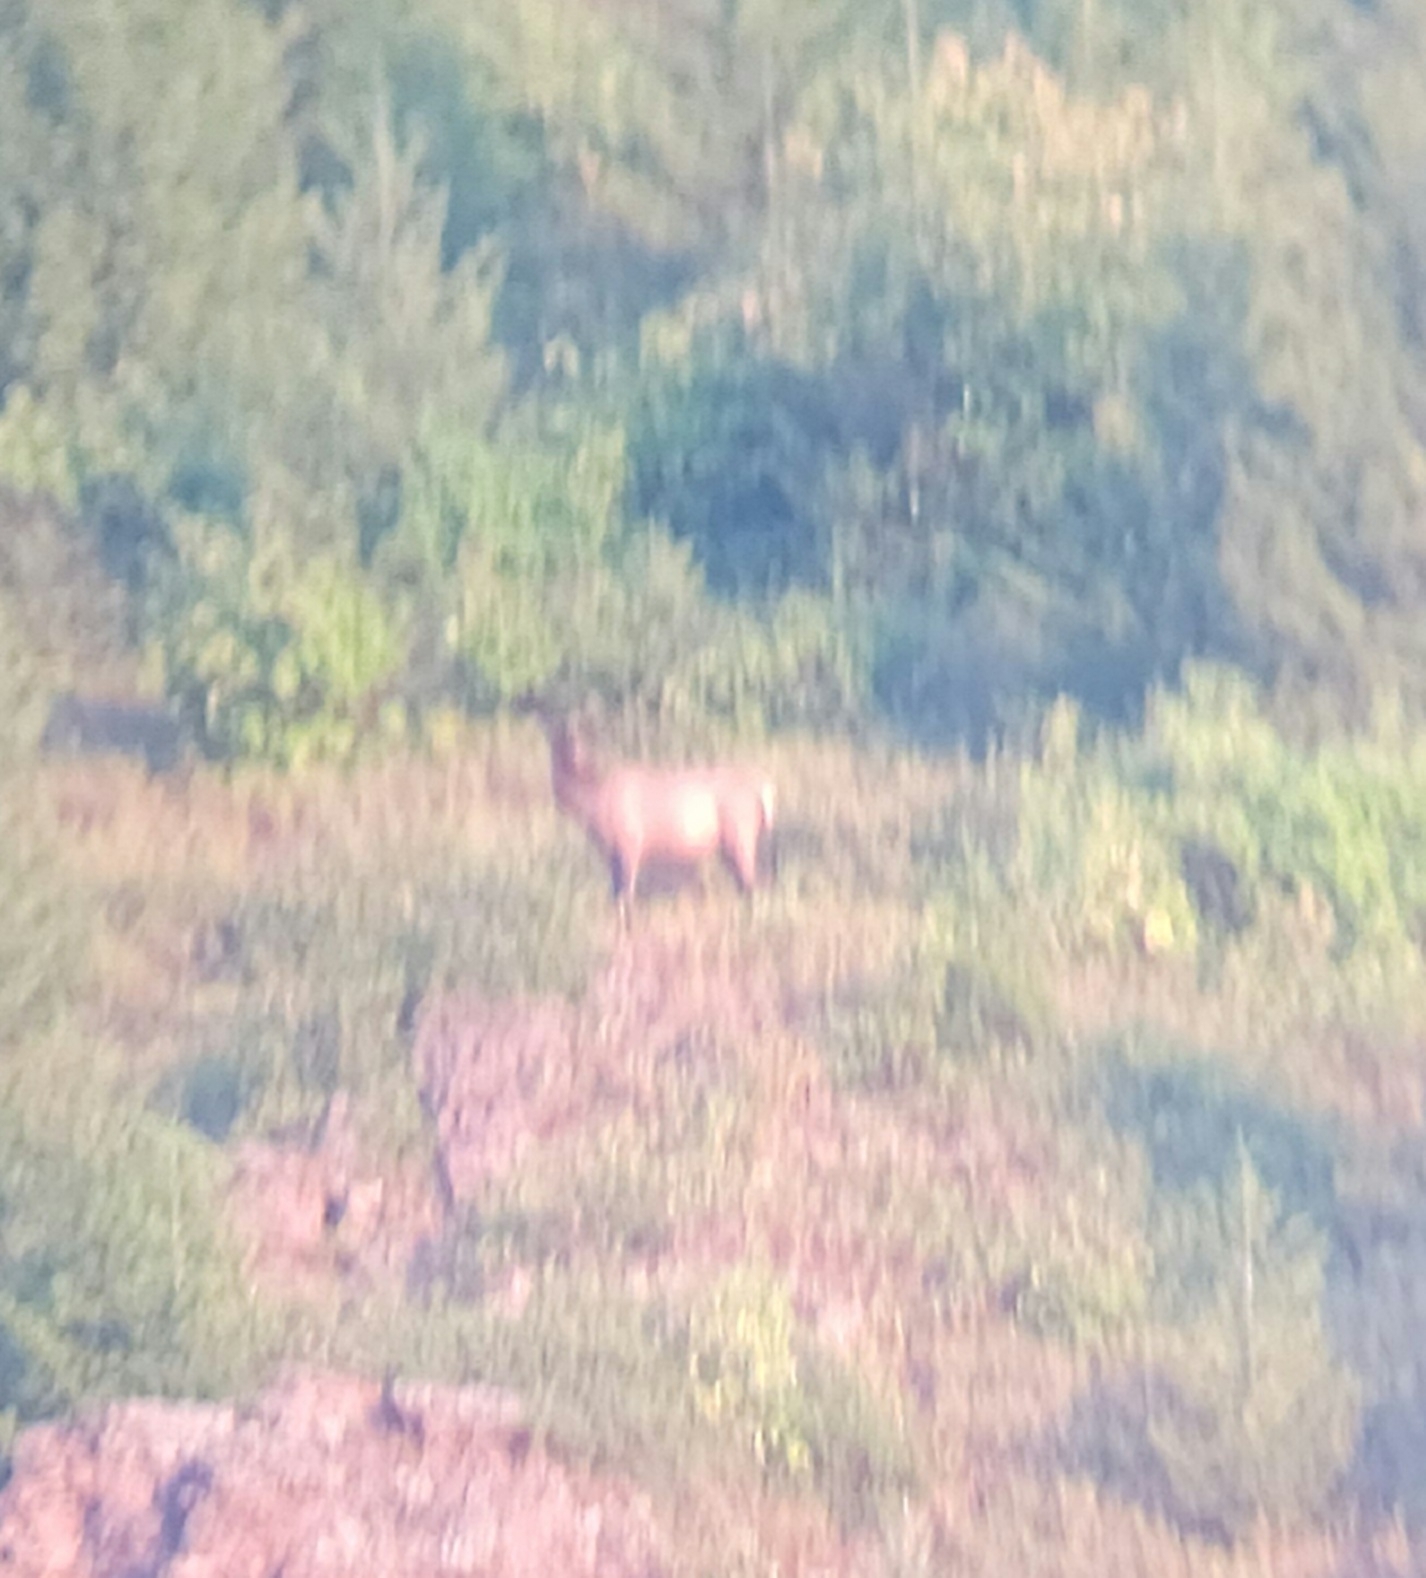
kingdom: Animalia
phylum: Chordata
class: Mammalia
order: Artiodactyla
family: Cervidae
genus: Cervus
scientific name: Cervus elaphus
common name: Red deer
